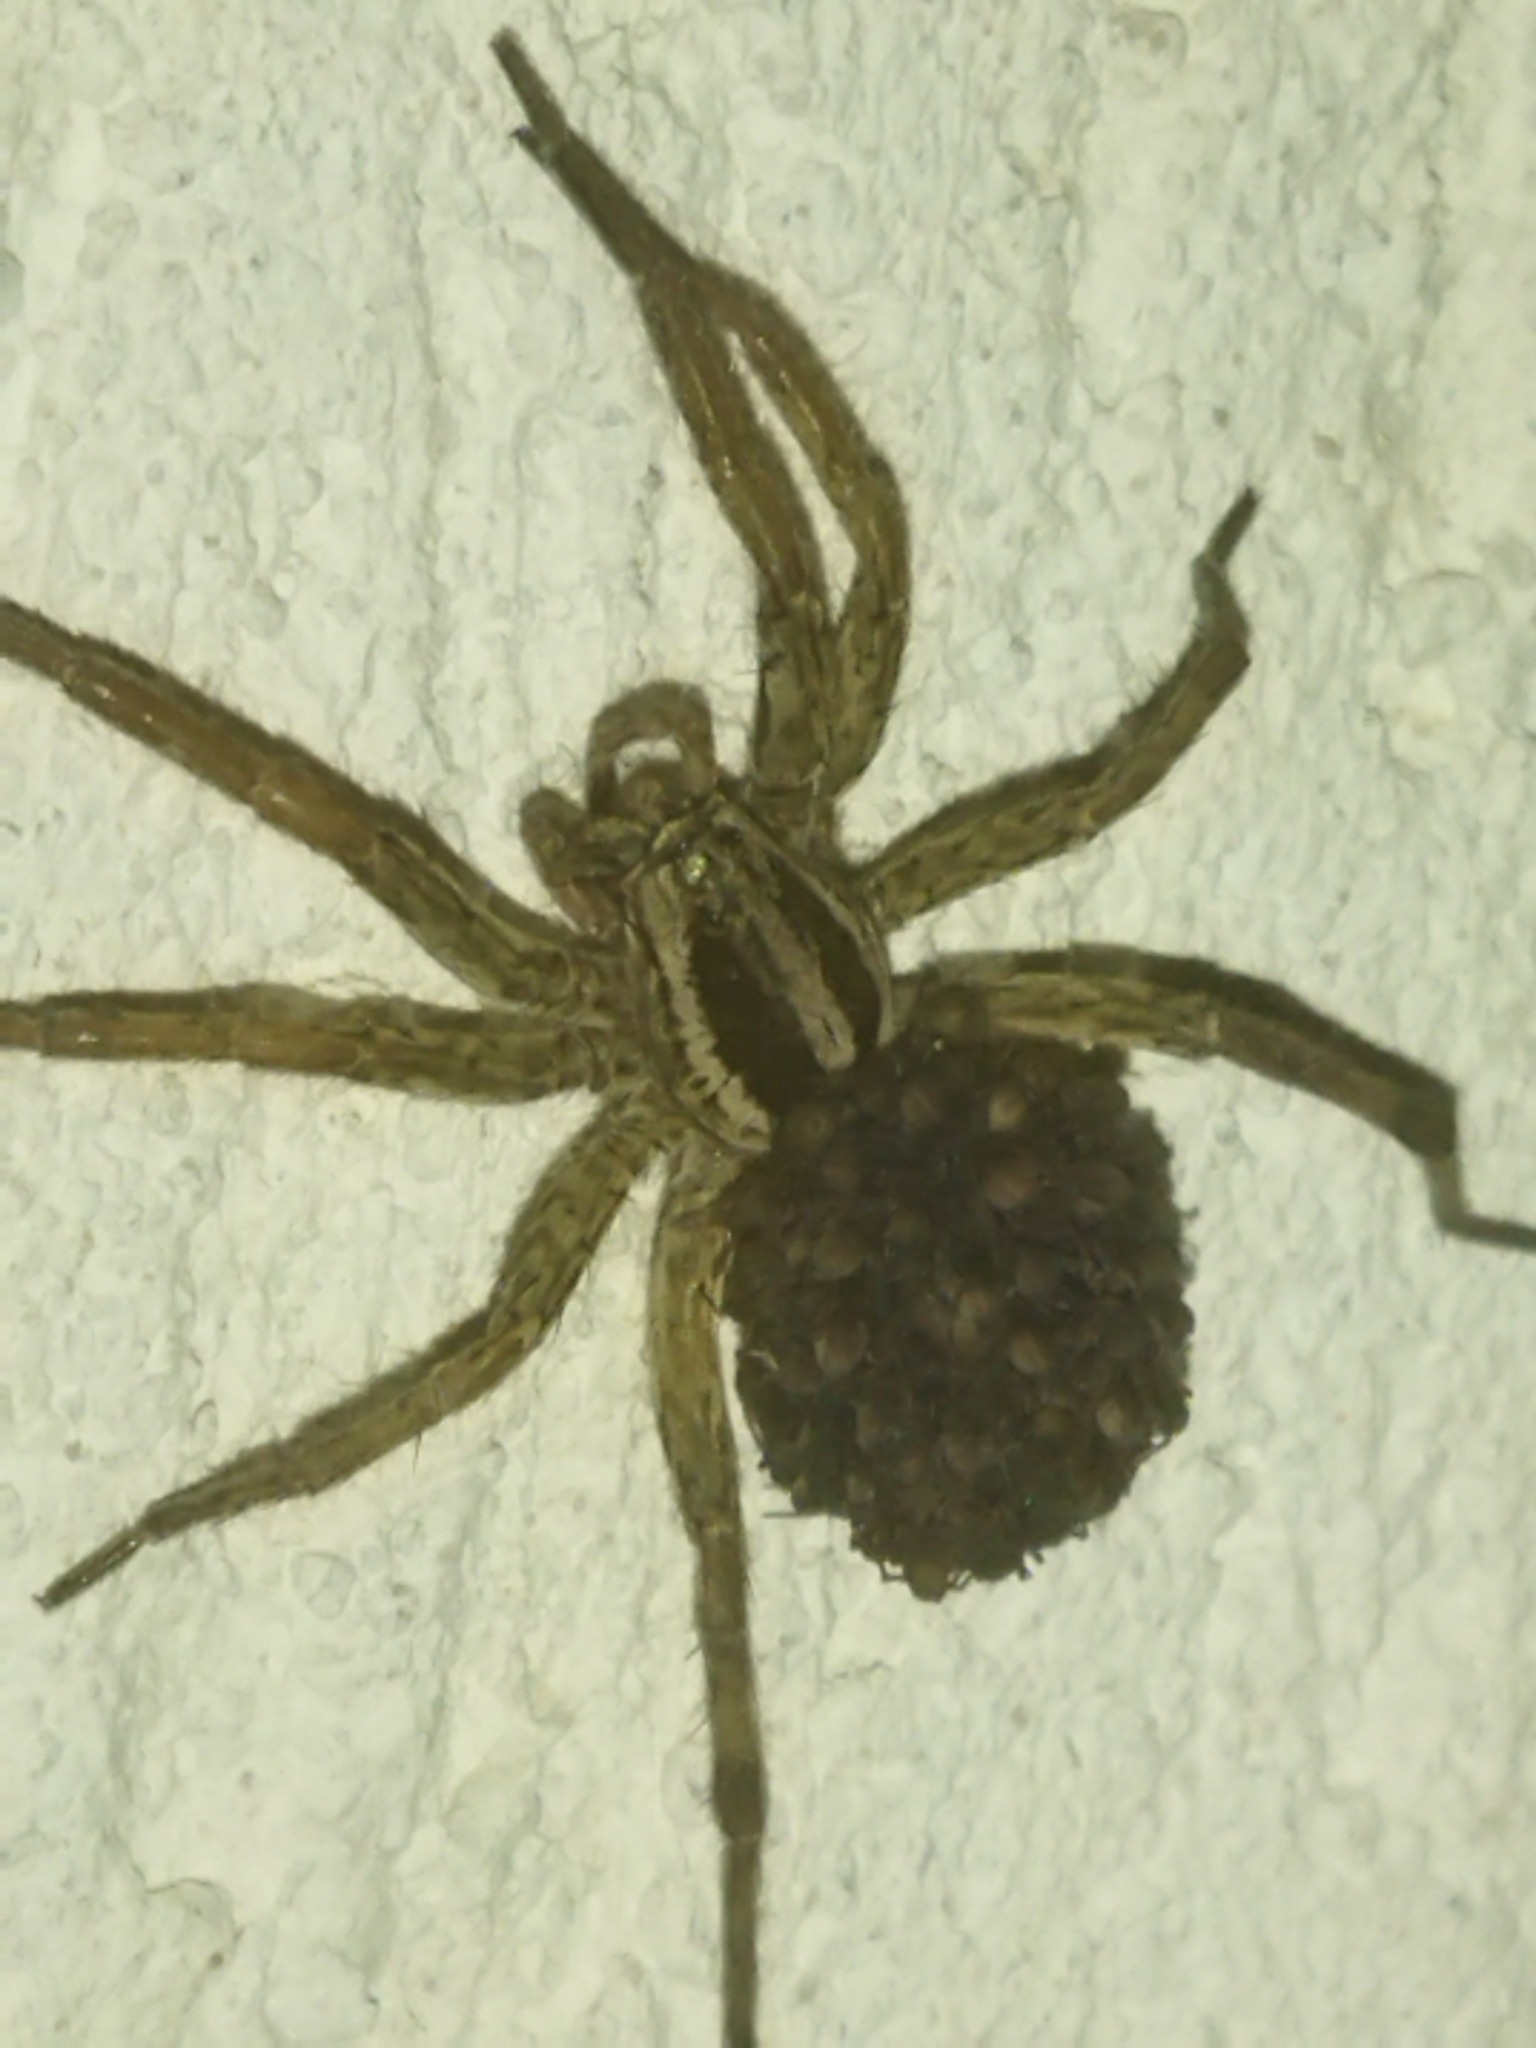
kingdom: Animalia
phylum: Arthropoda
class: Arachnida
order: Araneae
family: Lycosidae
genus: Hogna
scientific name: Hogna radiata
